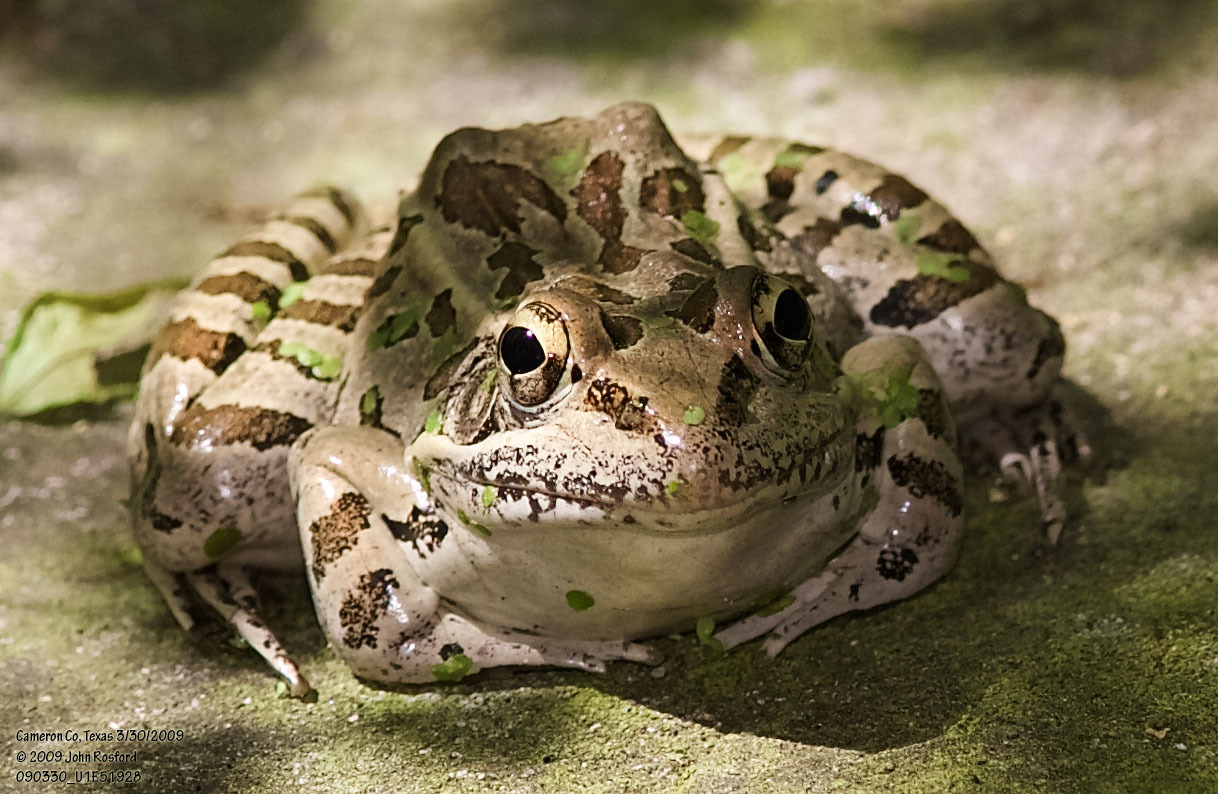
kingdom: Animalia
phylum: Chordata
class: Amphibia
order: Anura
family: Ranidae
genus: Lithobates
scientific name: Lithobates berlandieri
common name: Rio grande leopard frog
